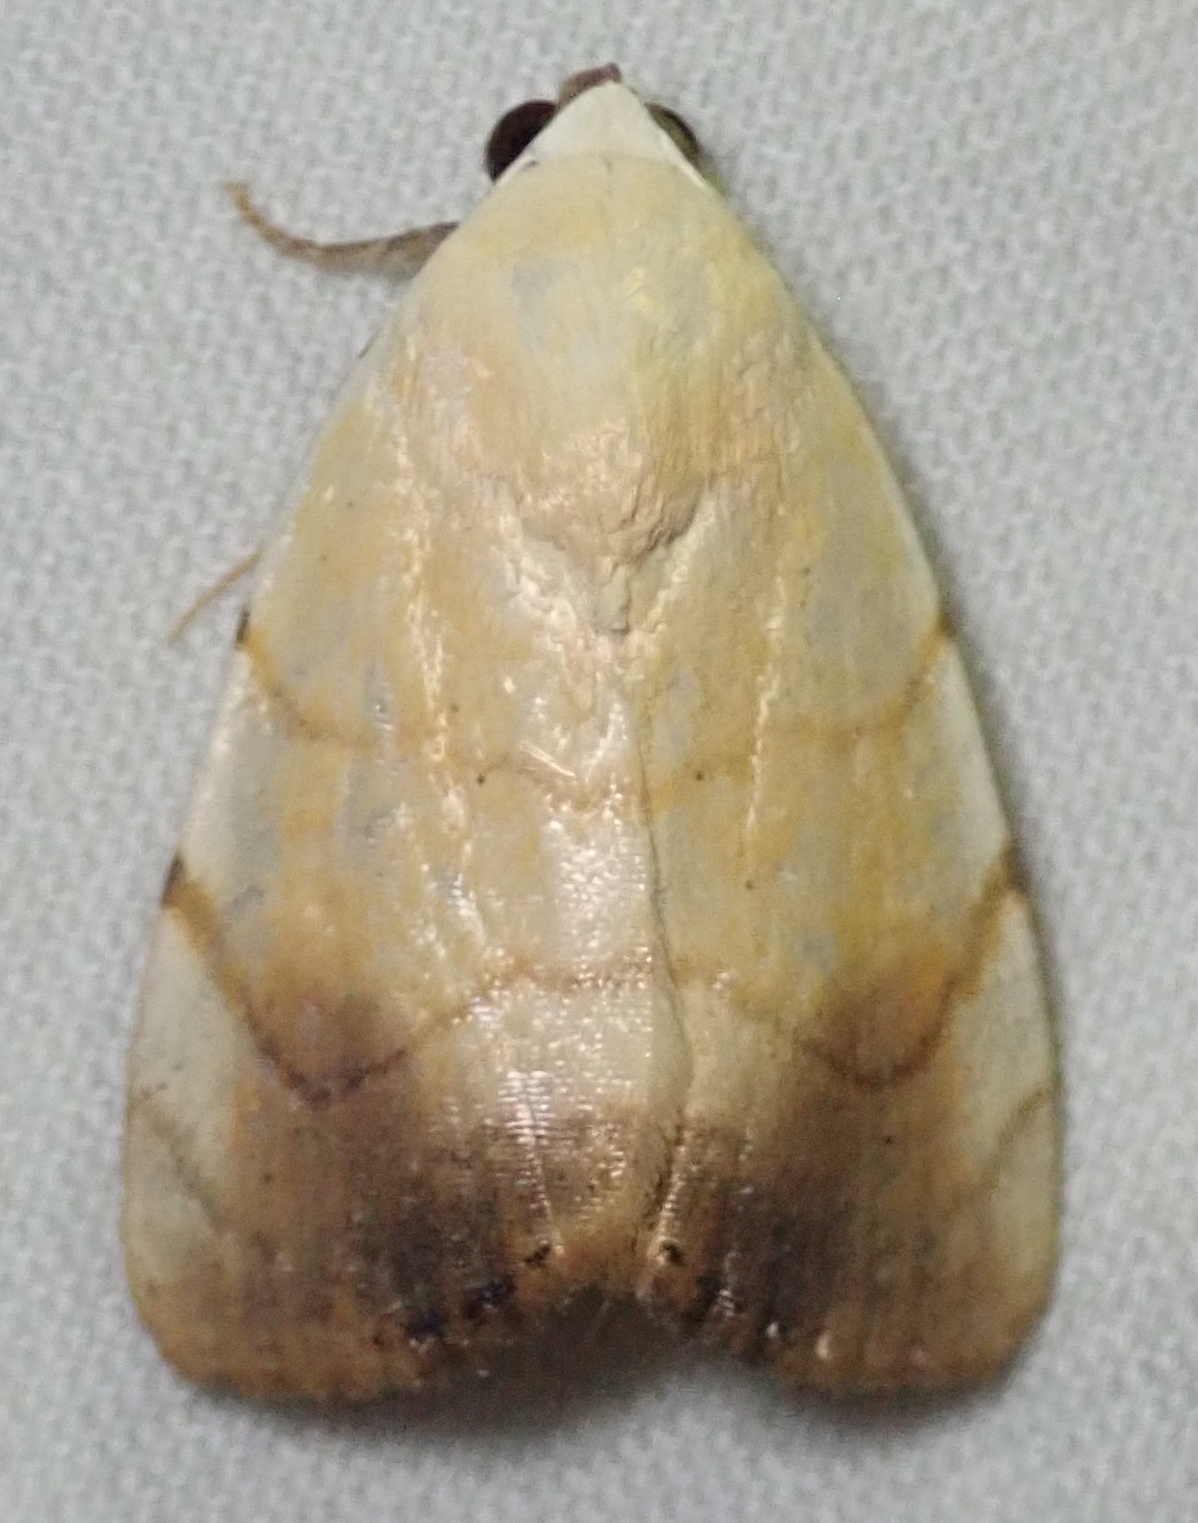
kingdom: Animalia
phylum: Arthropoda
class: Insecta
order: Lepidoptera
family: Nolidae
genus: Xanthodes
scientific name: Xanthodes albago
